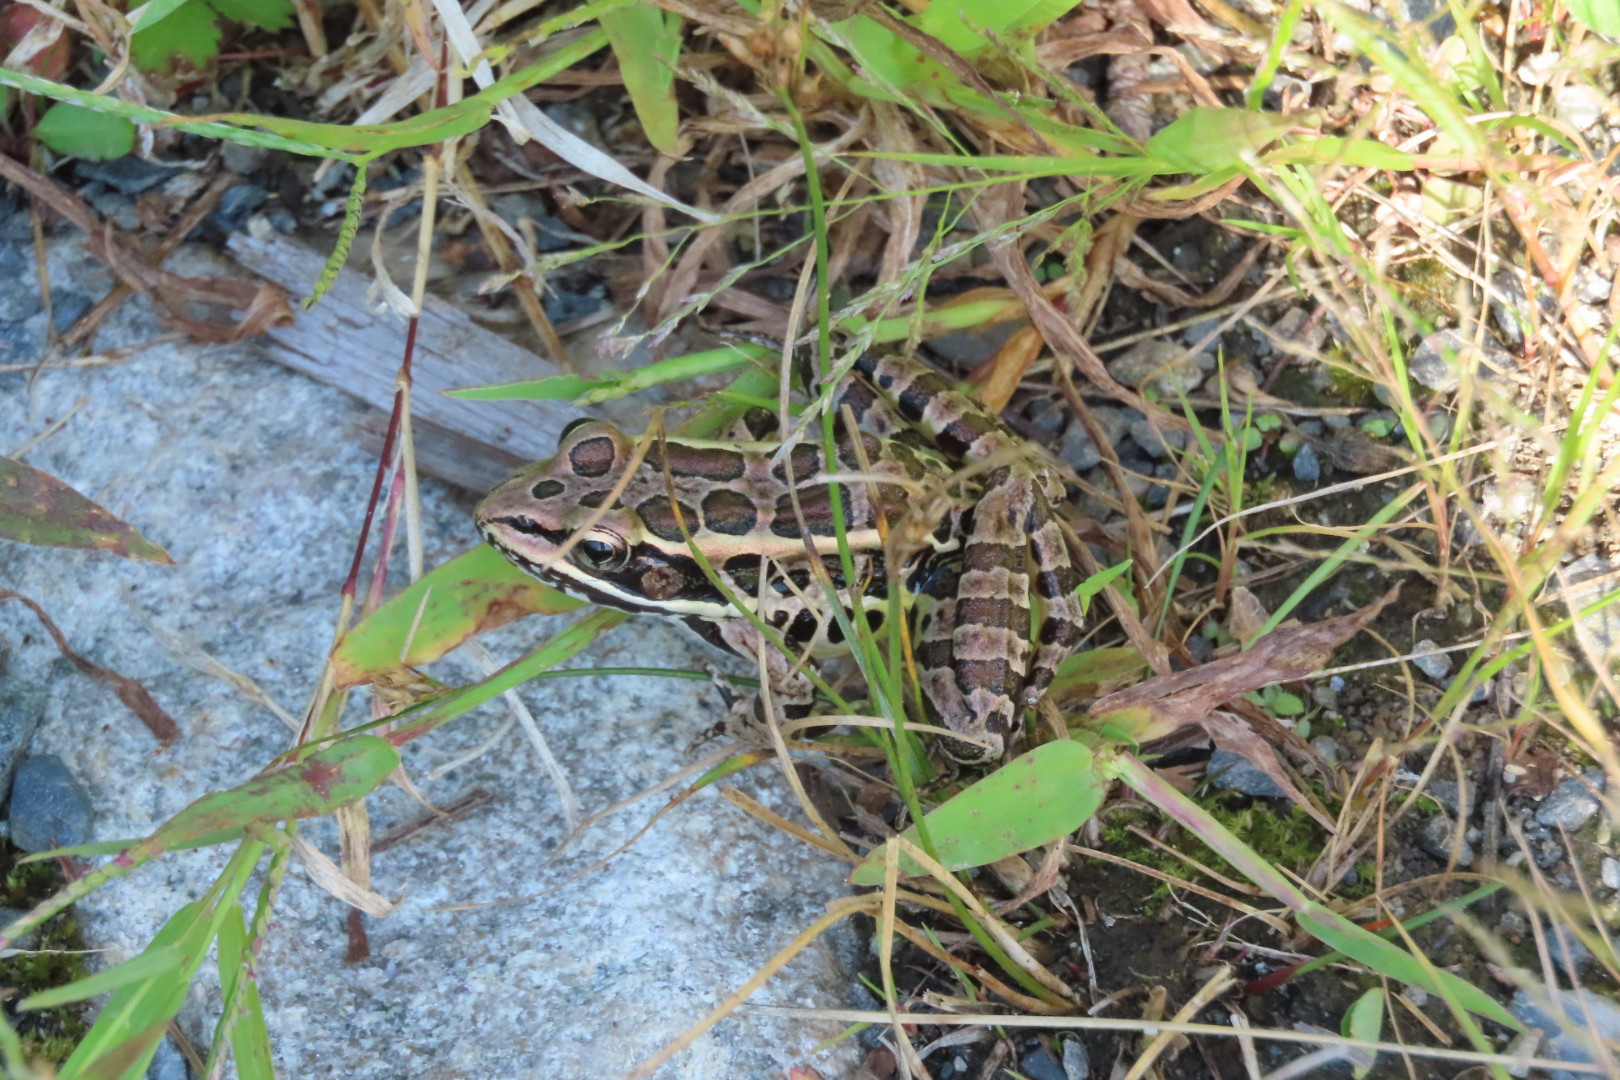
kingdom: Animalia
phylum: Chordata
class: Amphibia
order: Anura
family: Ranidae
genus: Lithobates
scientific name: Lithobates palustris
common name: Pickerel frog
